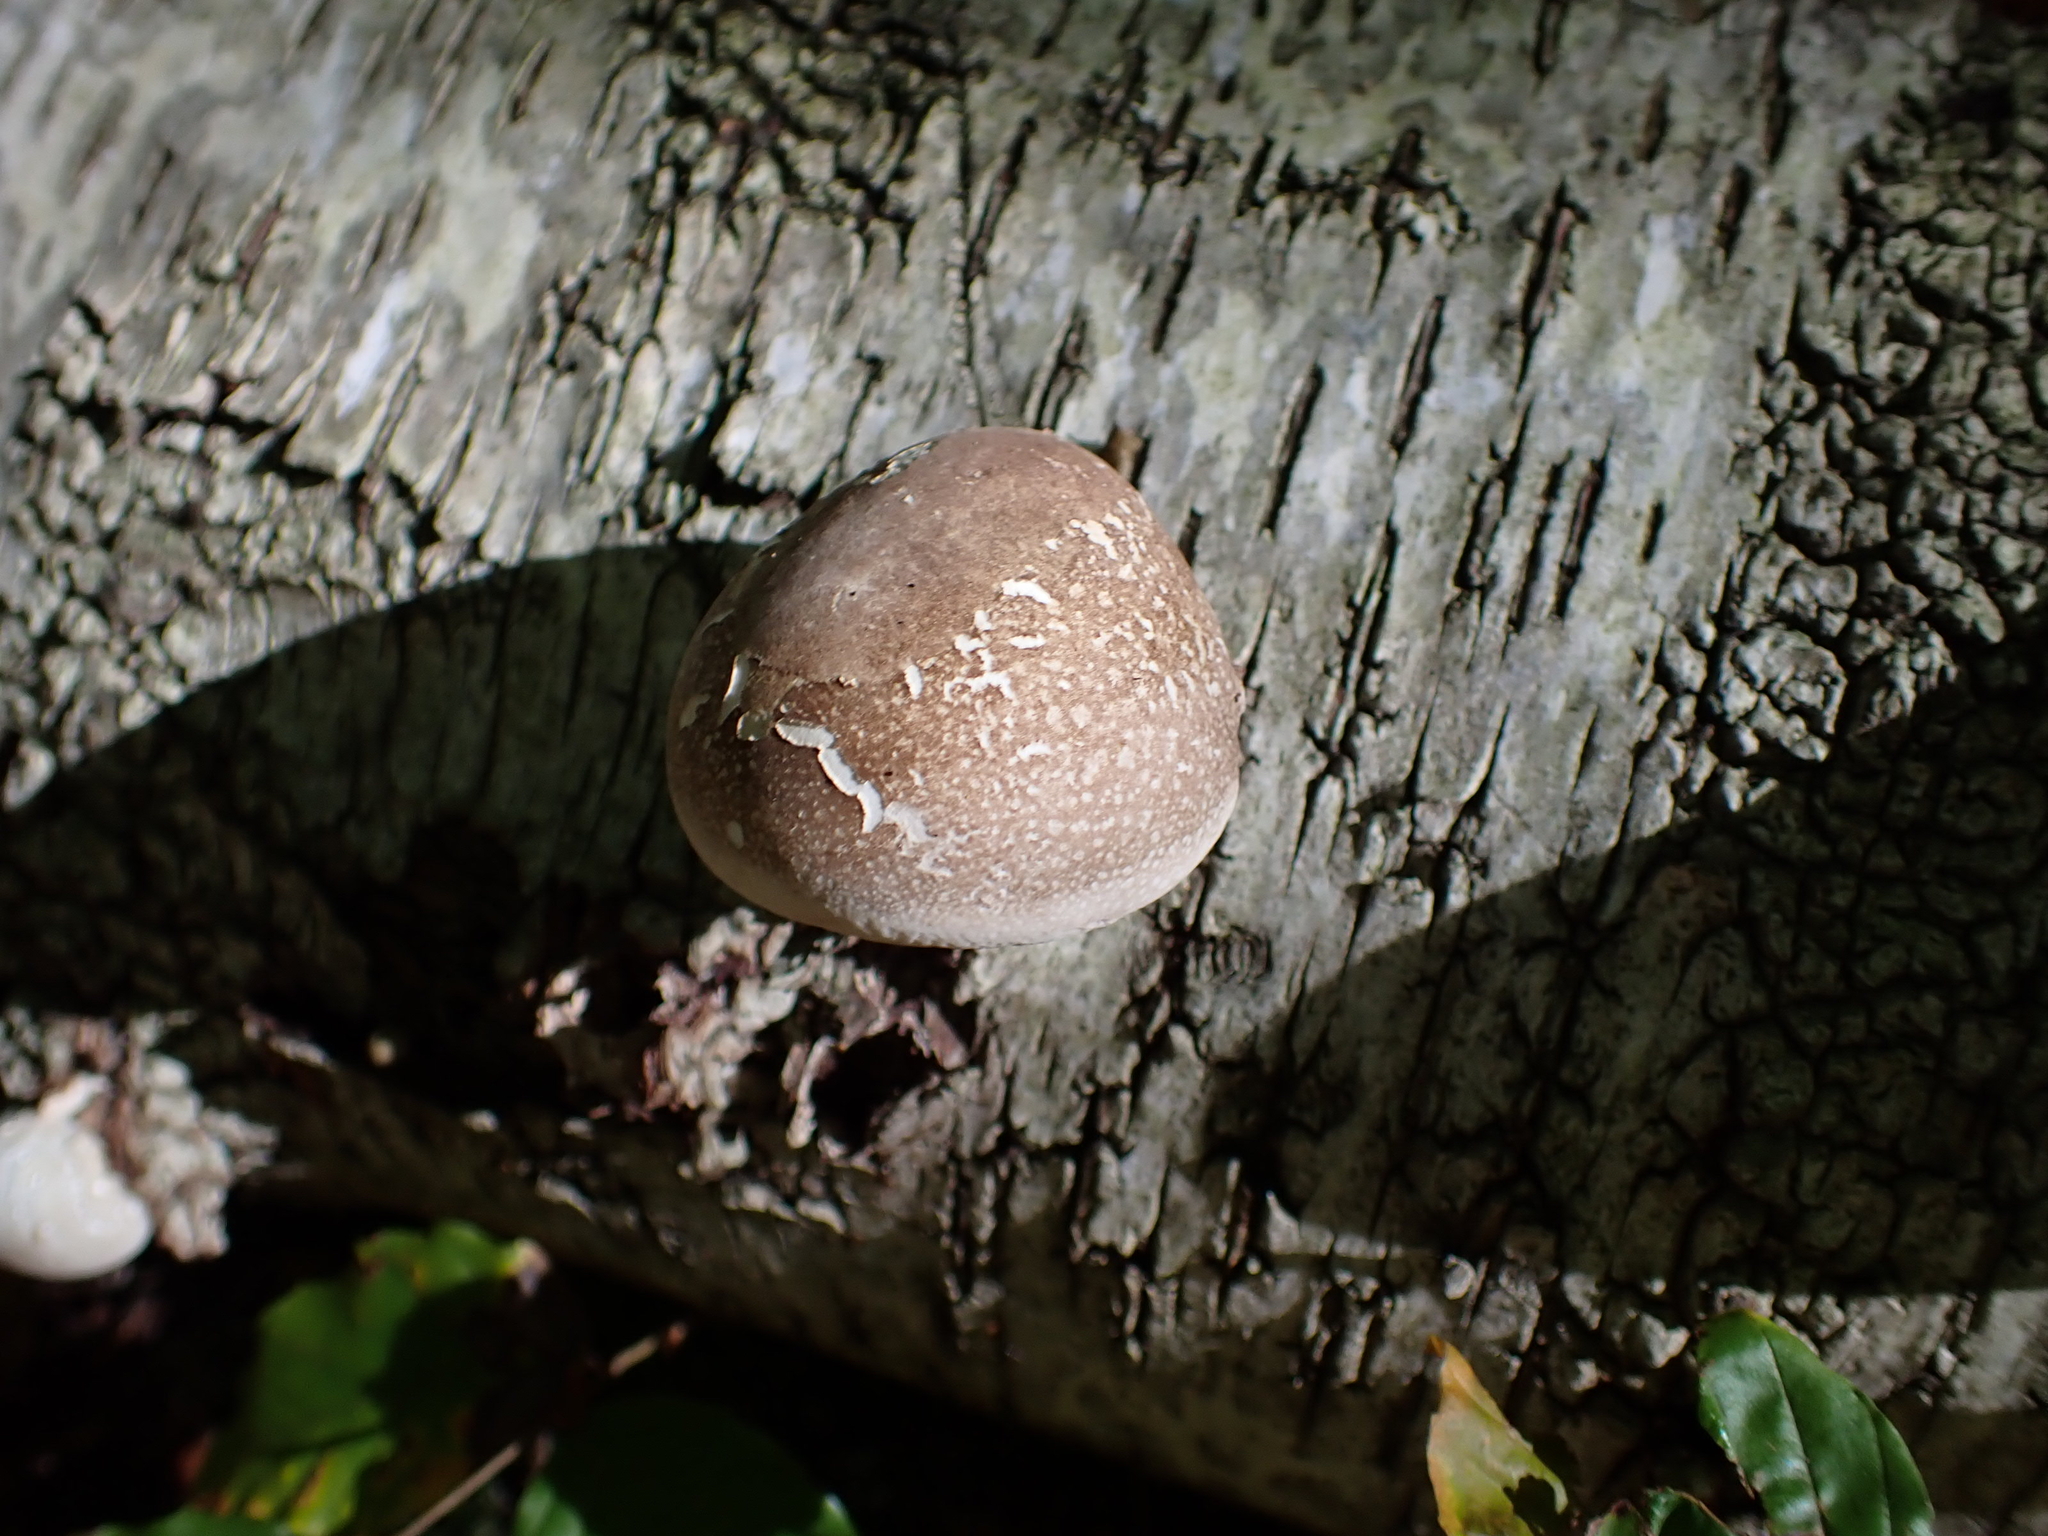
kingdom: Fungi
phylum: Basidiomycota
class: Agaricomycetes
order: Polyporales
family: Fomitopsidaceae
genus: Fomitopsis
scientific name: Fomitopsis betulina
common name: Birch polypore
